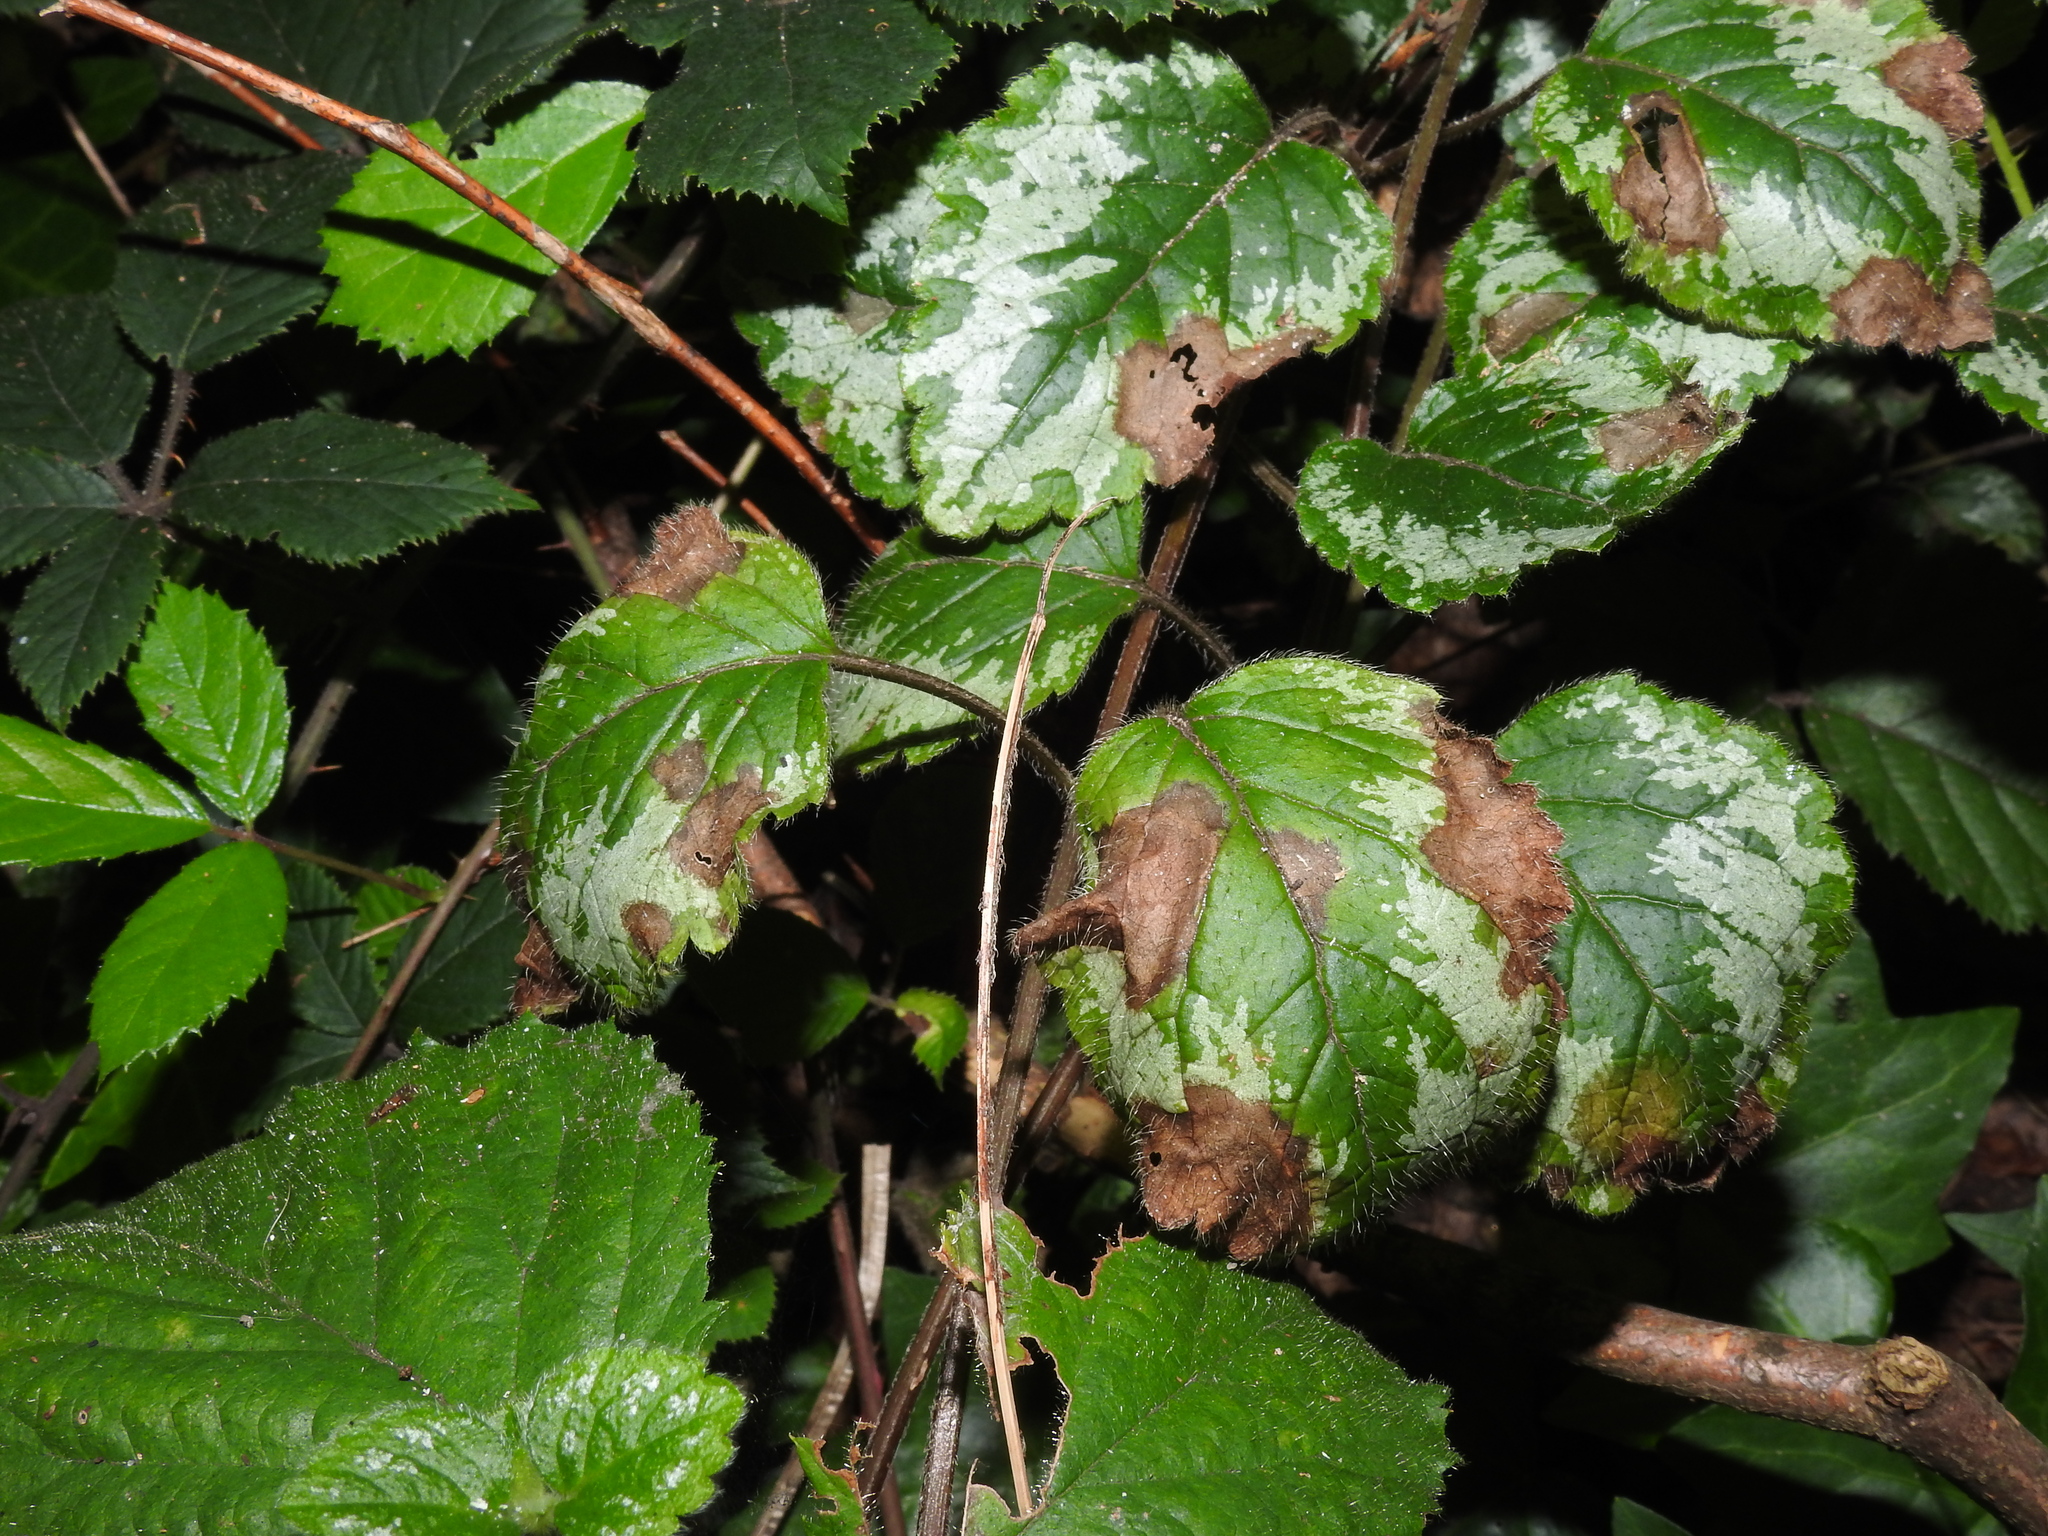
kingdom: Plantae
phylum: Tracheophyta
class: Magnoliopsida
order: Lamiales
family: Lamiaceae
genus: Lamium
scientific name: Lamium galeobdolon
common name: Yellow archangel
